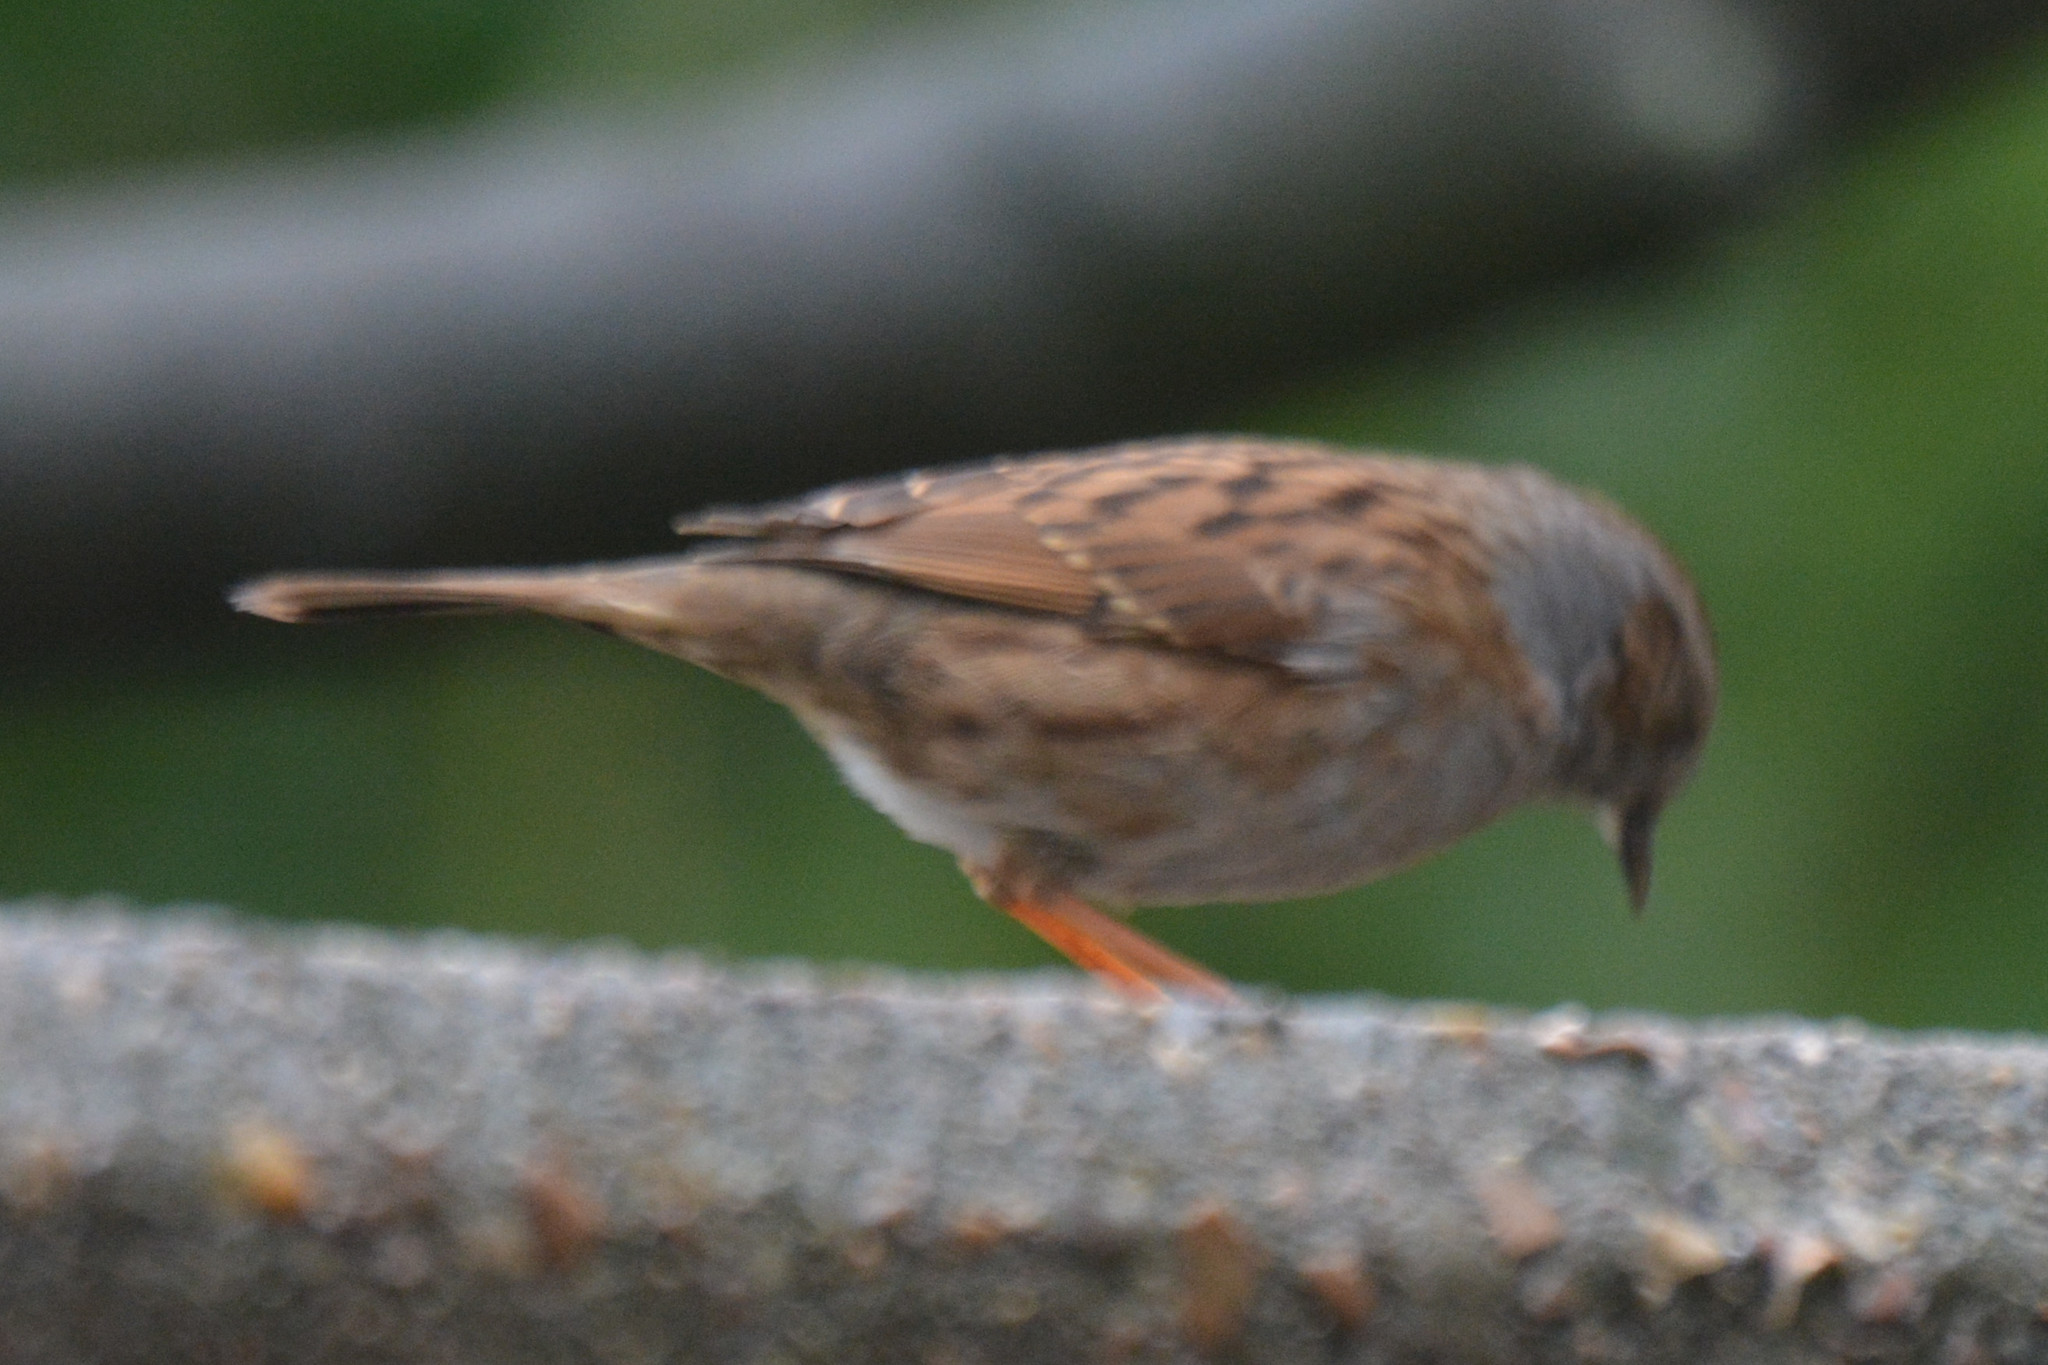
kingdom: Animalia
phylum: Chordata
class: Aves
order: Passeriformes
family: Prunellidae
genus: Prunella
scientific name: Prunella modularis
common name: Dunnock
